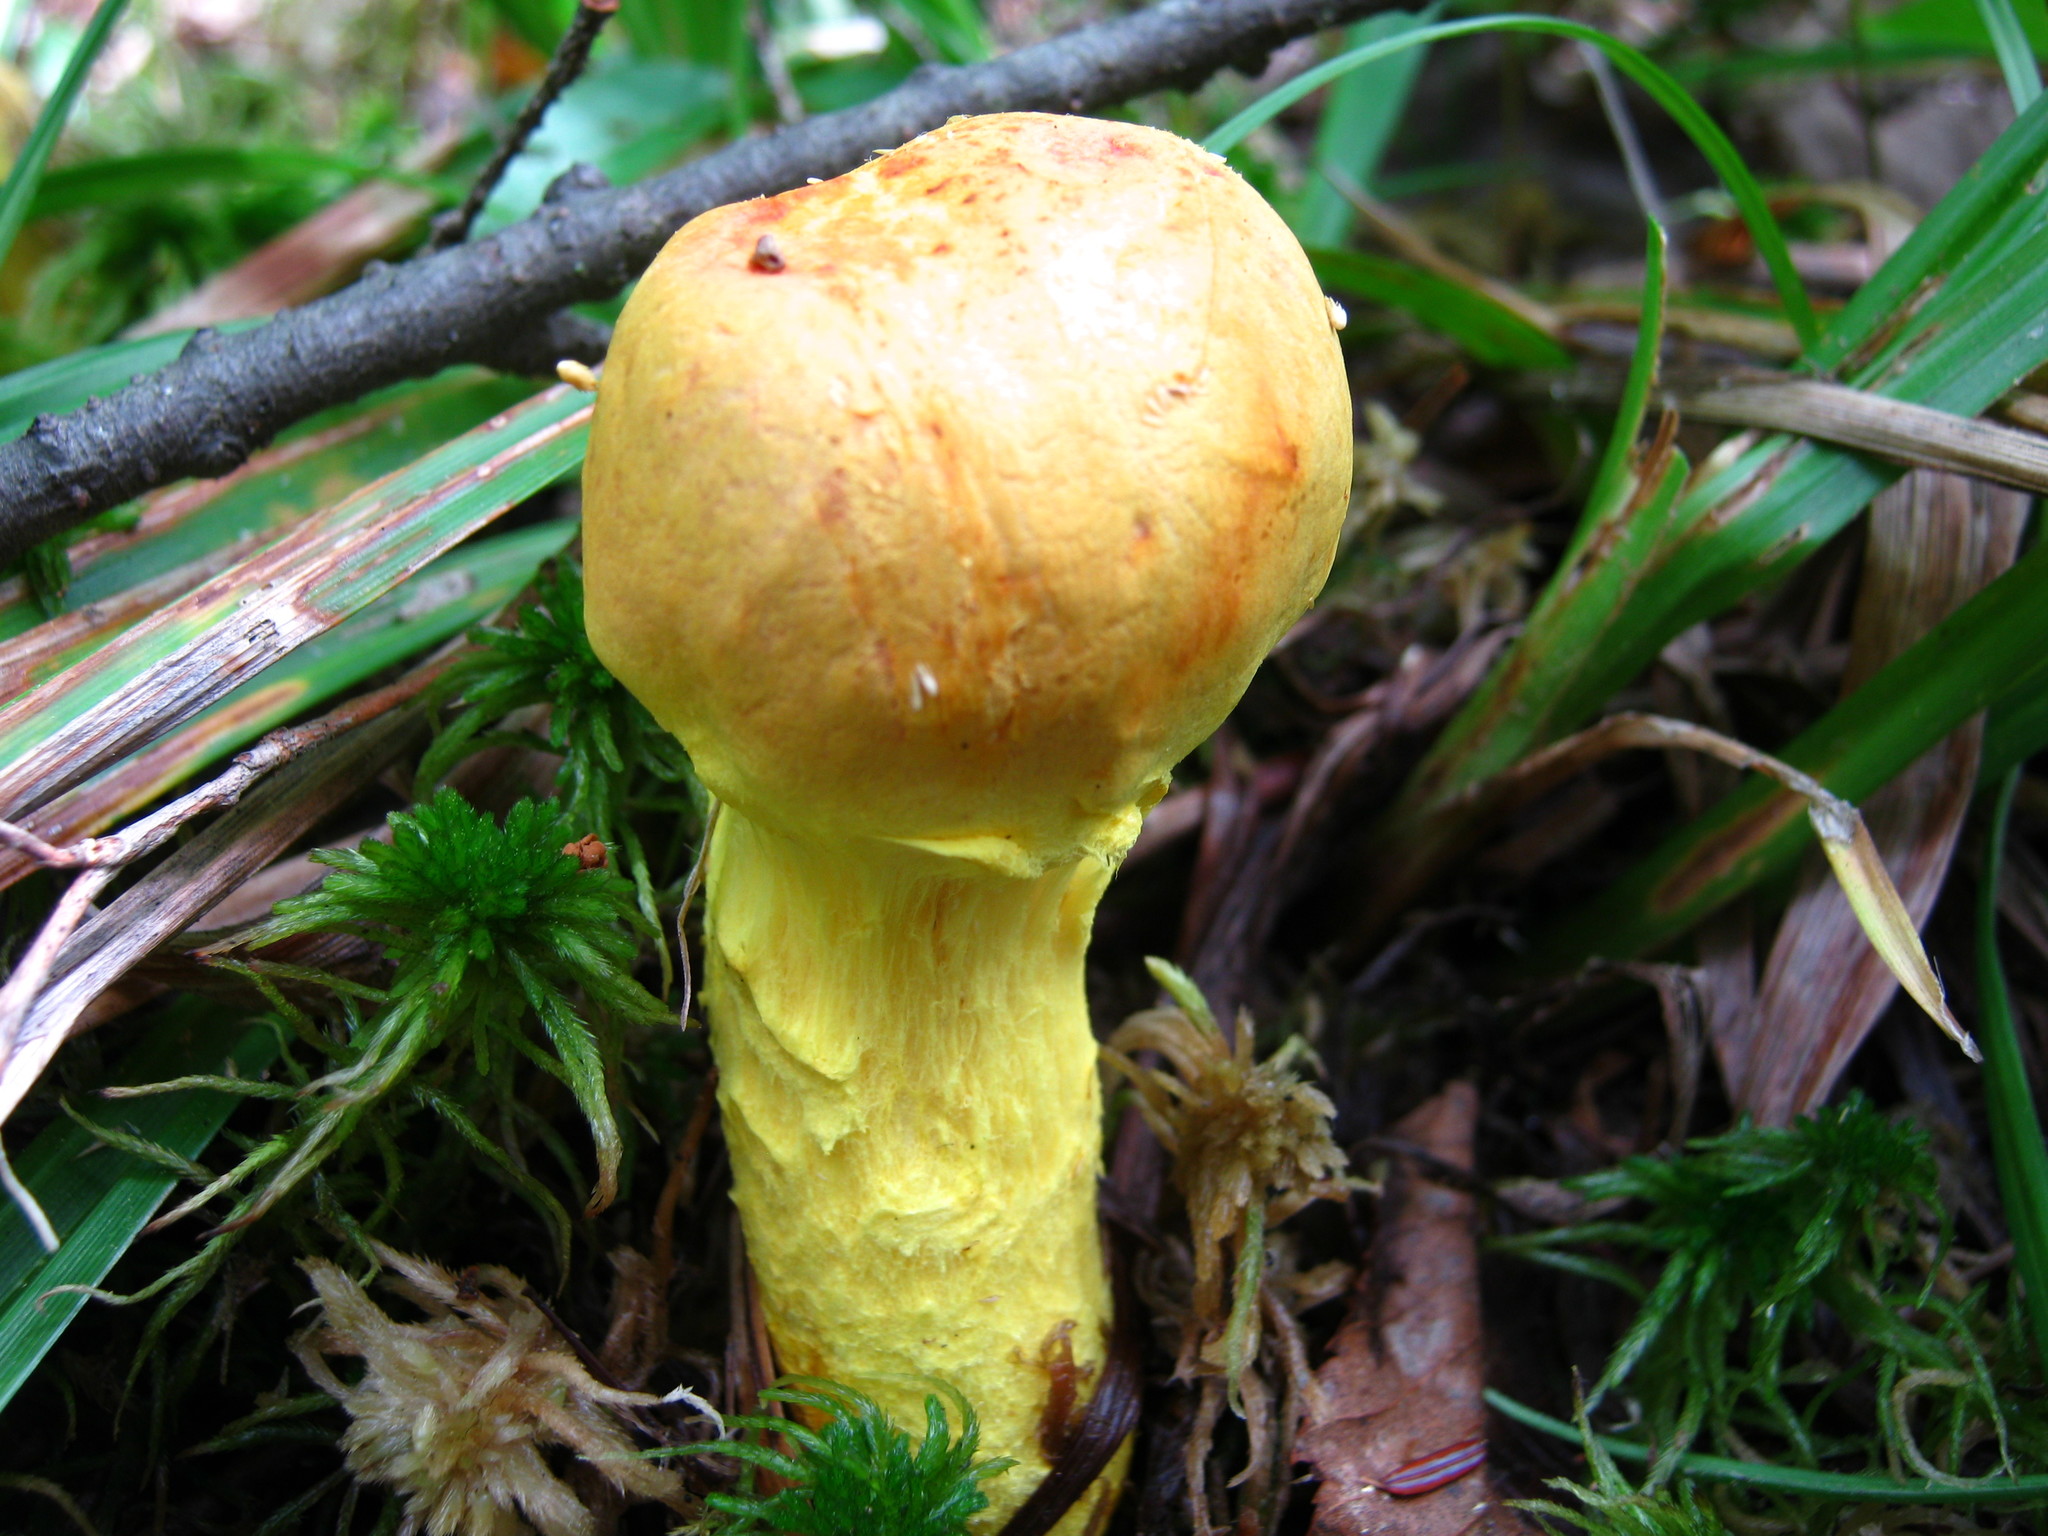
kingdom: Fungi
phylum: Basidiomycota
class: Agaricomycetes
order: Boletales
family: Boletaceae
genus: Pulveroboletus
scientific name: Pulveroboletus ravenelii
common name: Powdery sulfur bolete
